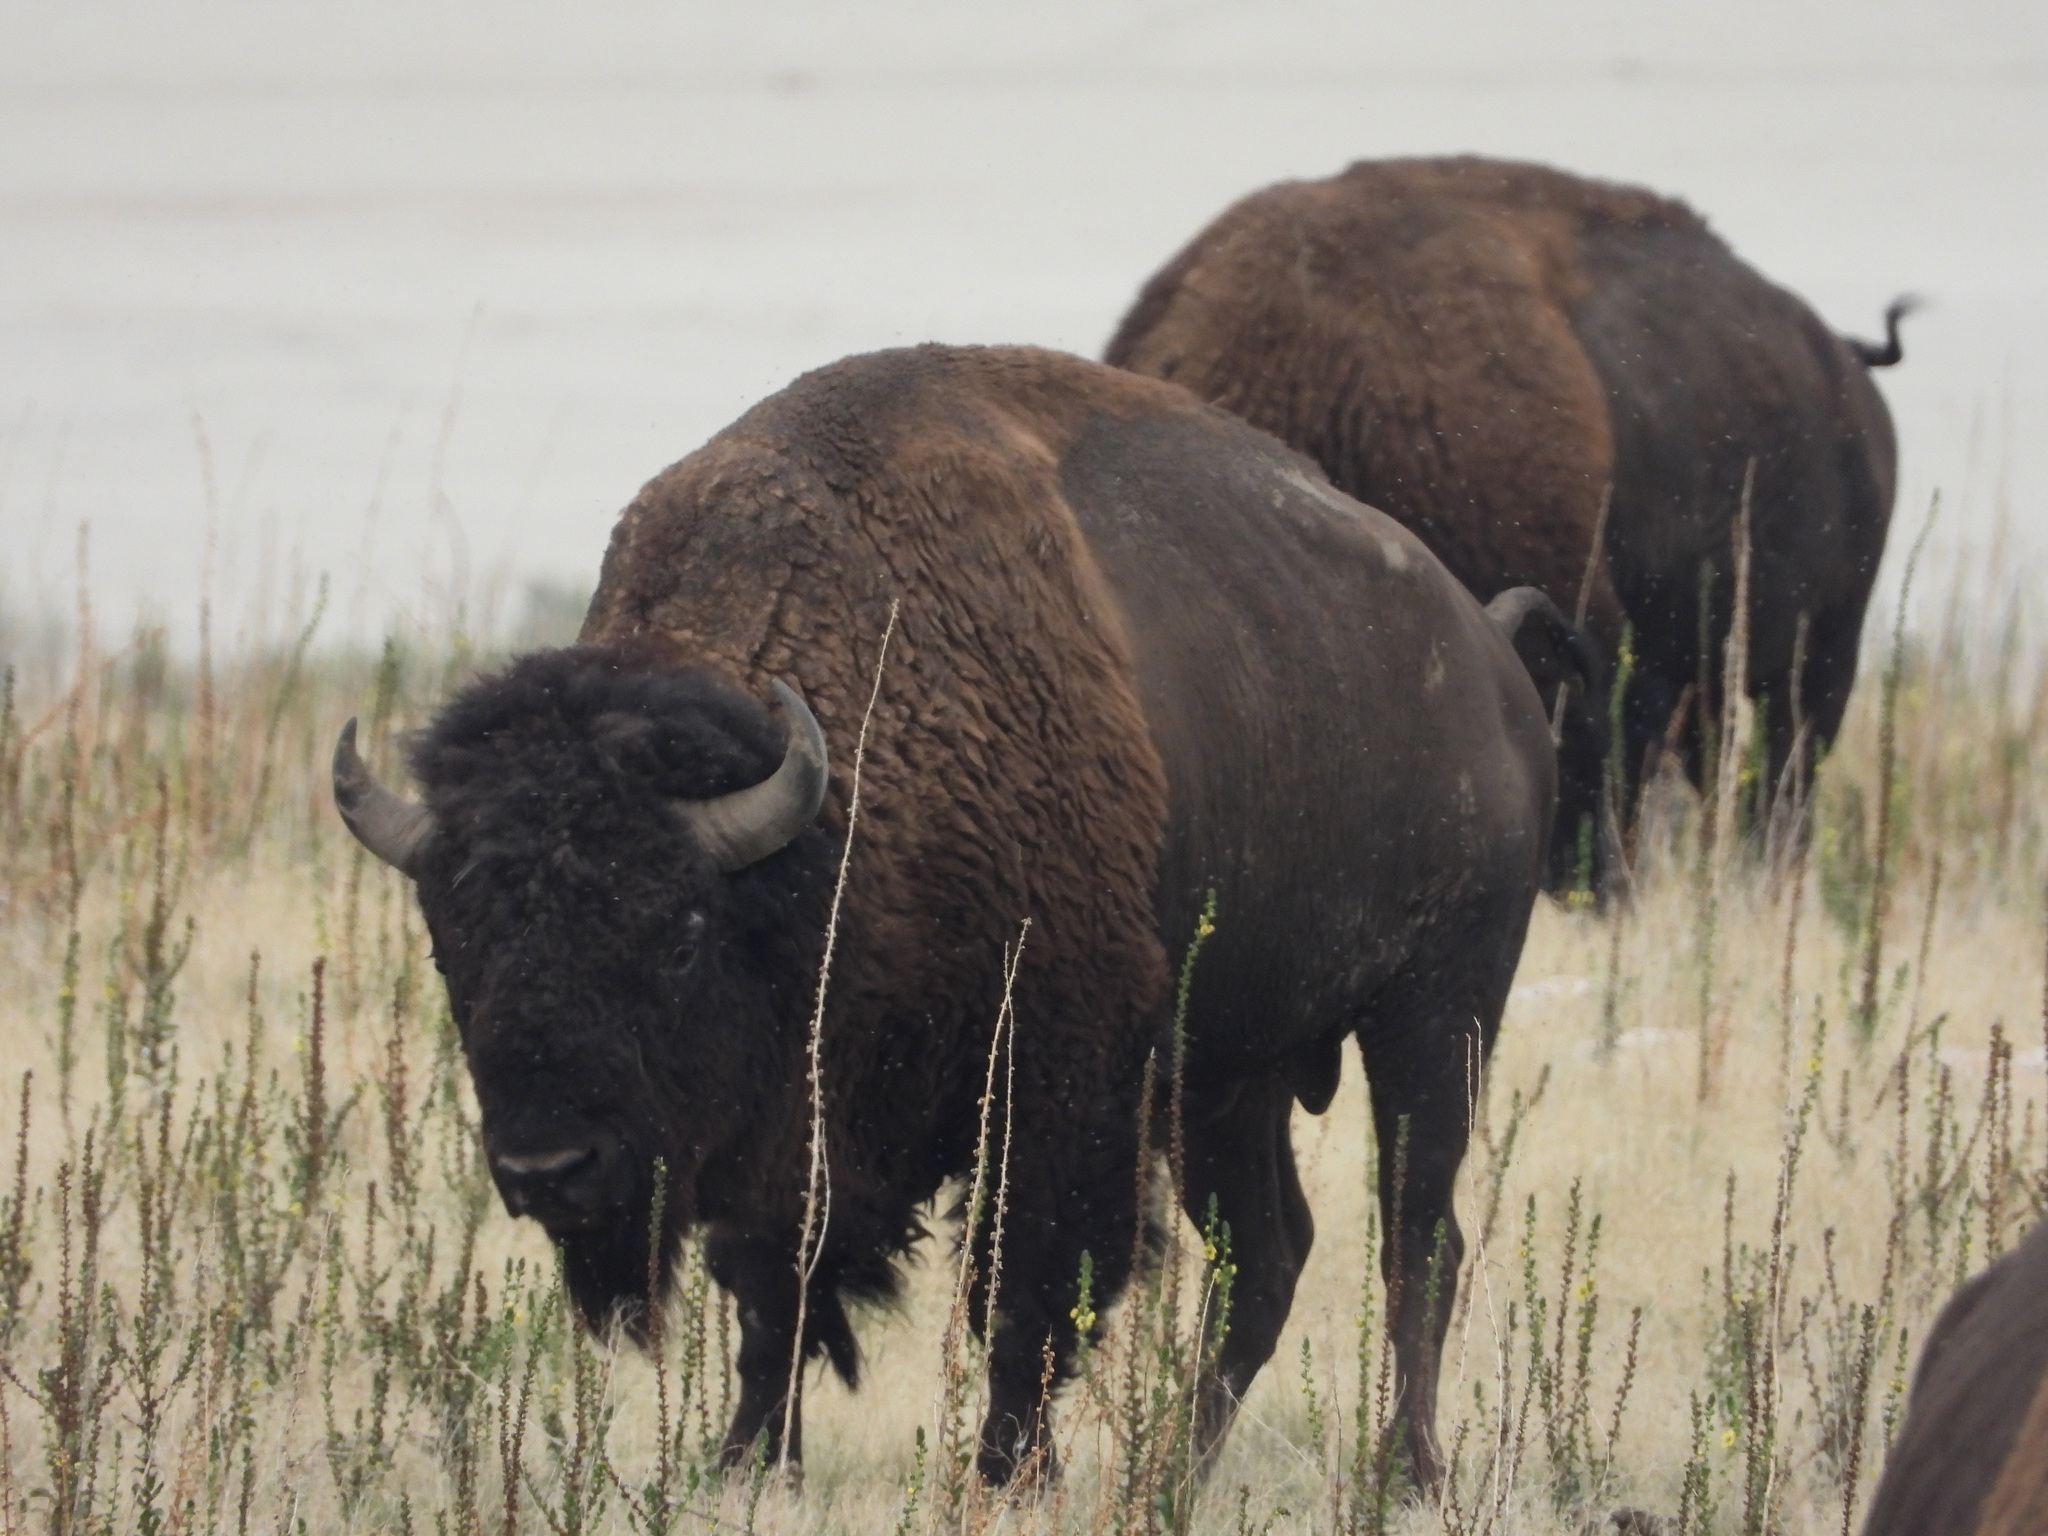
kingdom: Animalia
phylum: Chordata
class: Mammalia
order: Artiodactyla
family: Bovidae
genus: Bison
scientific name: Bison bison
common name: American bison
